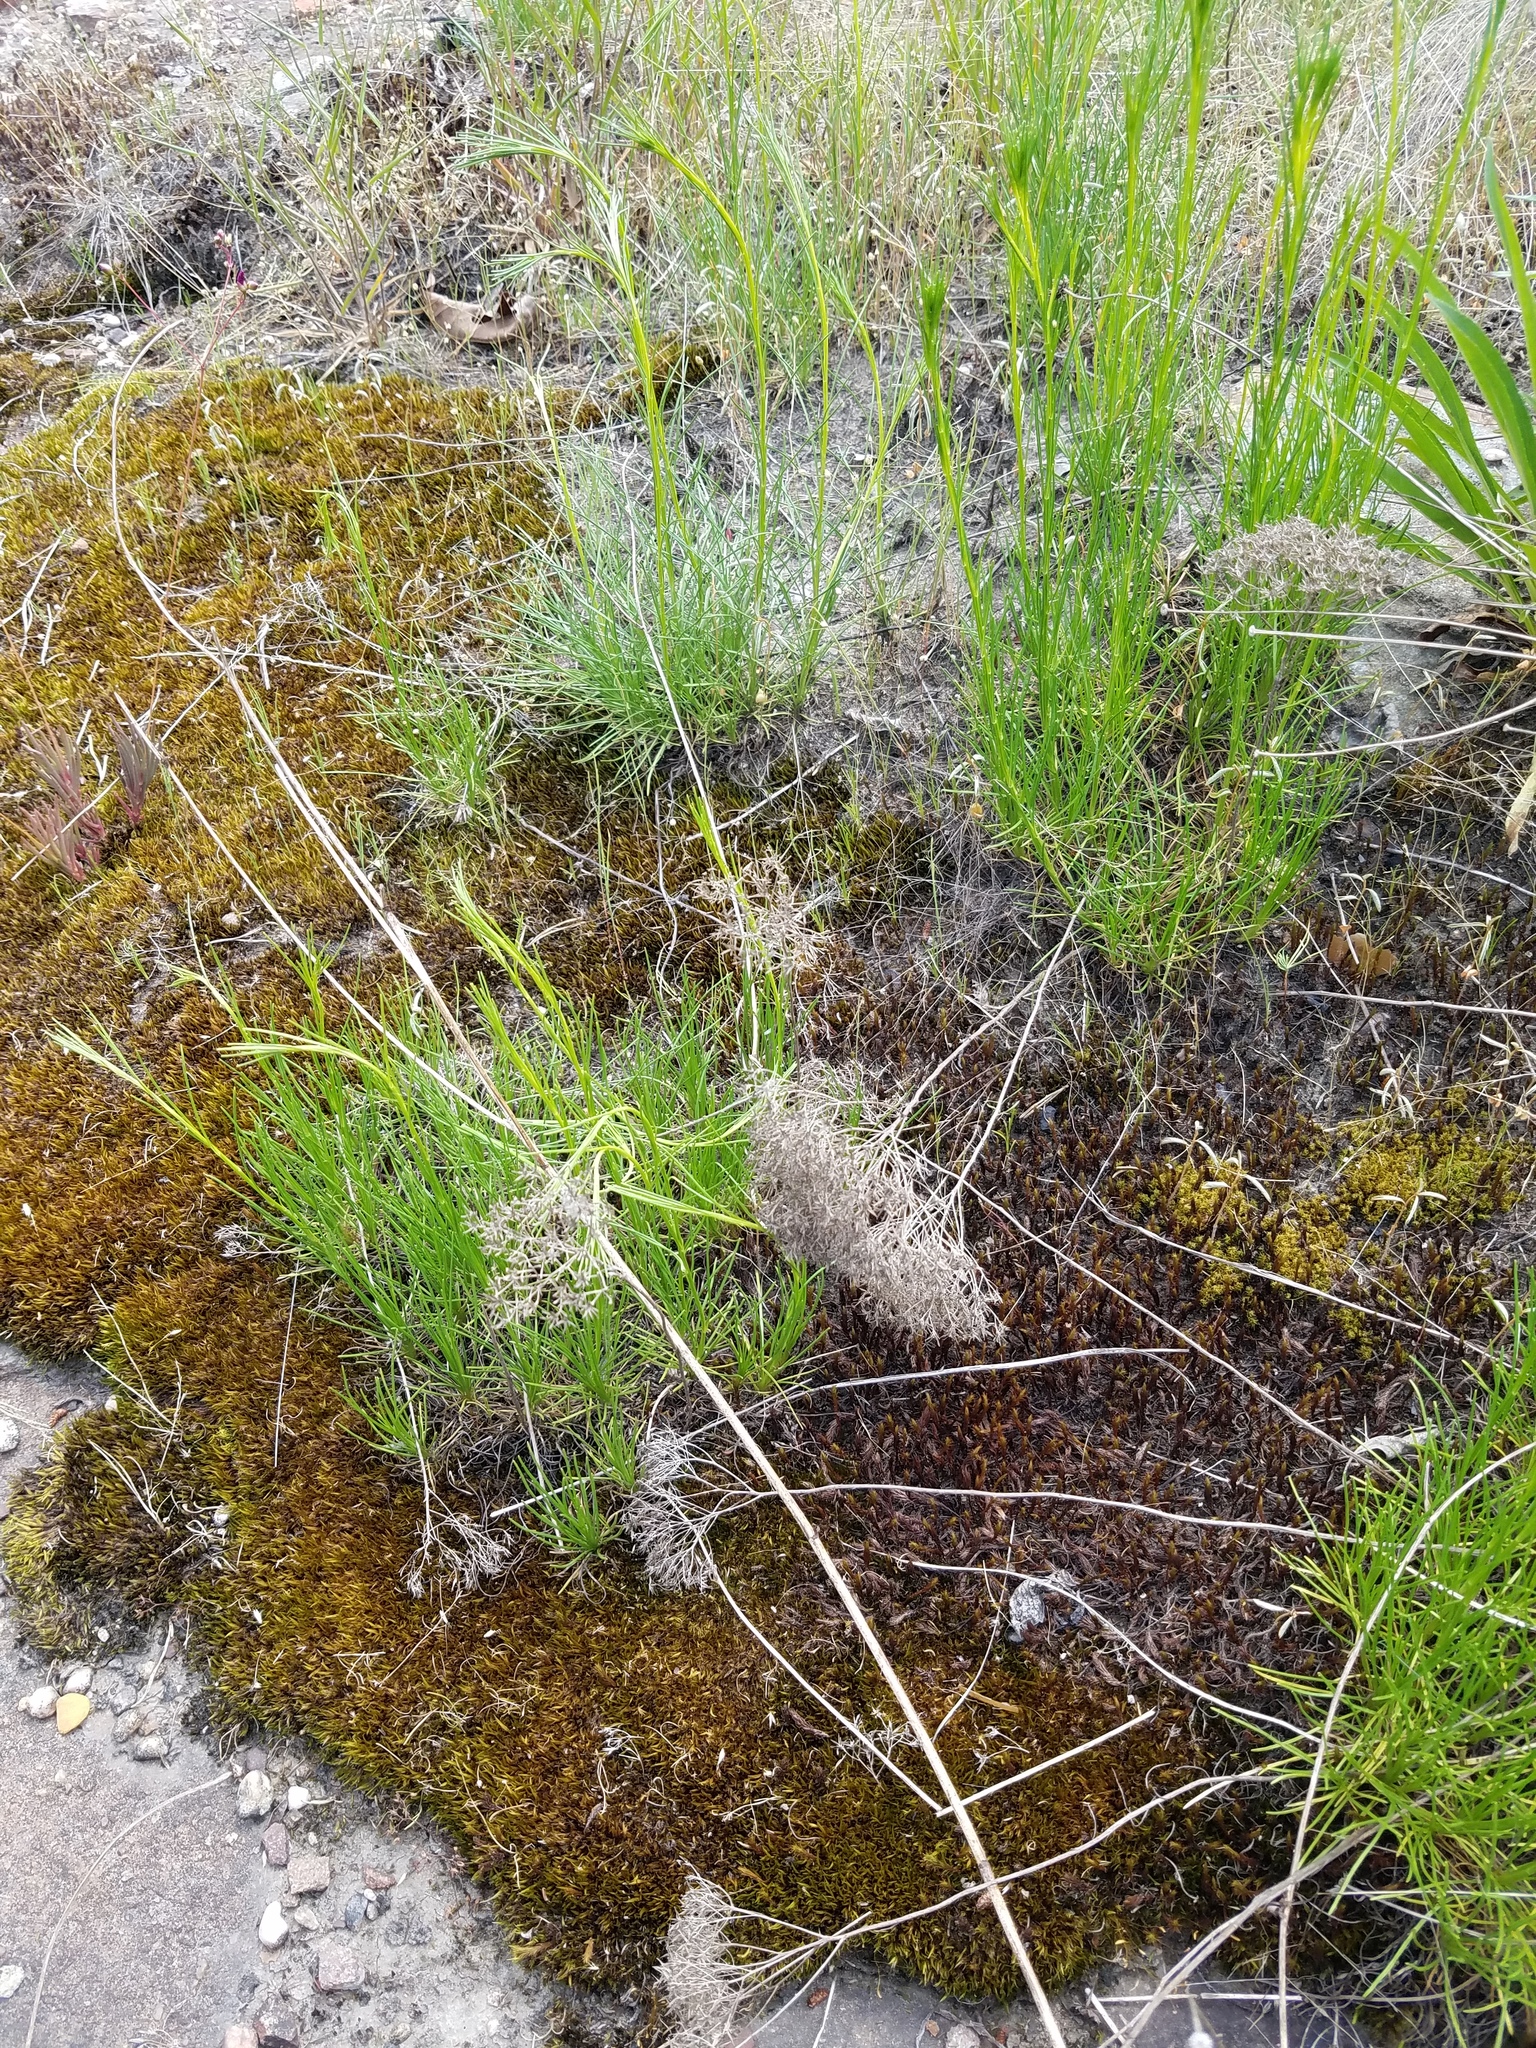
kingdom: Plantae
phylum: Tracheophyta
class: Magnoliopsida
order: Asterales
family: Asteraceae
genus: Bigelowia
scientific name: Bigelowia nuttallii
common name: Nuttall's rayless-goldenrod
